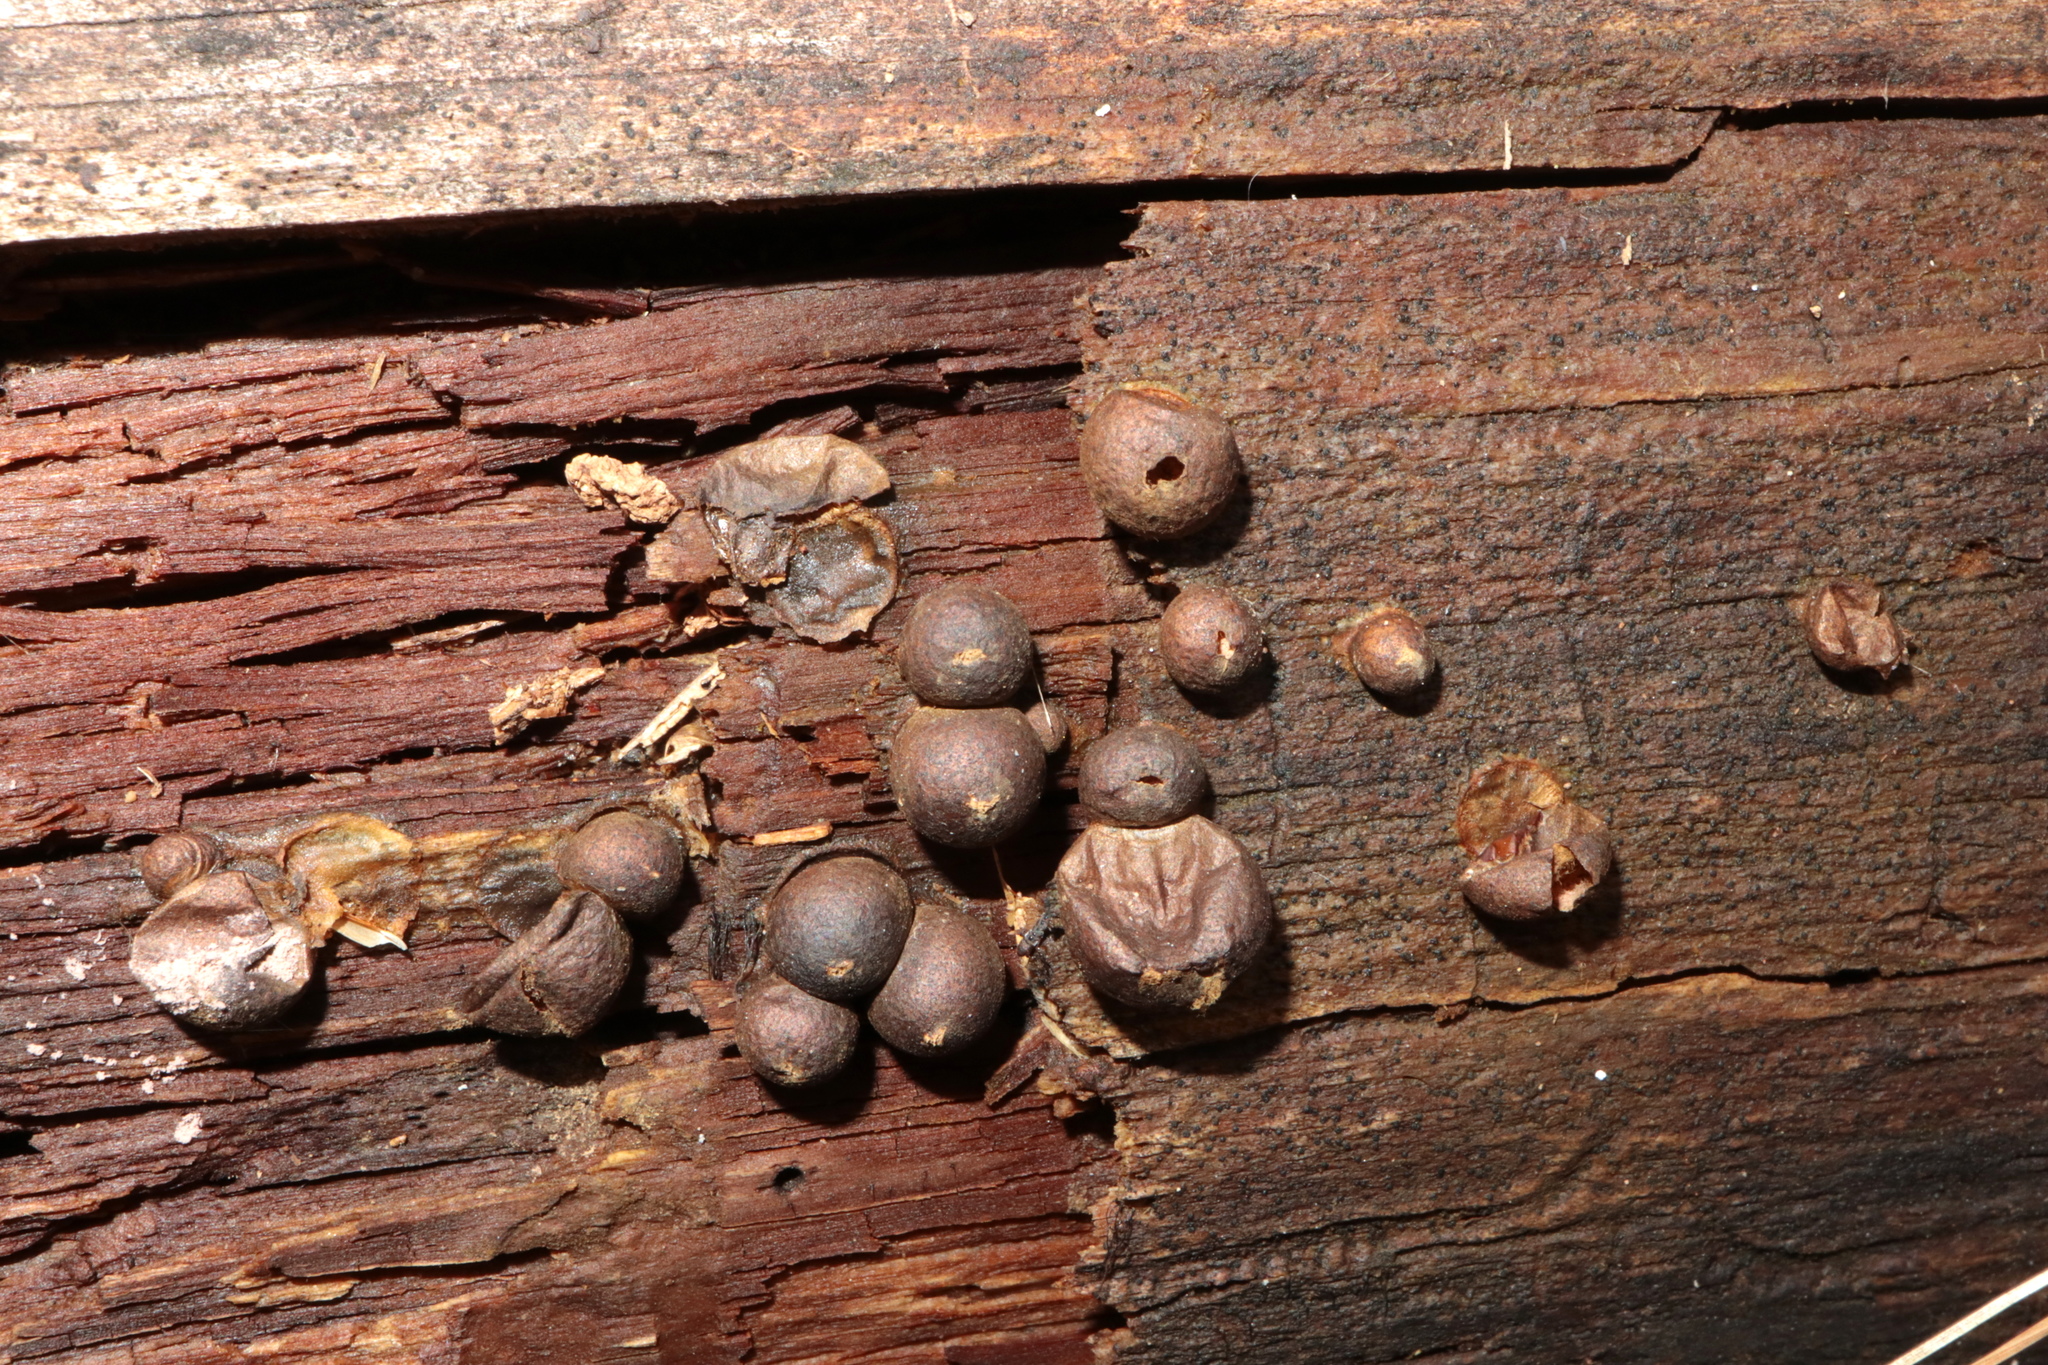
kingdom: Protozoa
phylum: Mycetozoa
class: Myxomycetes
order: Cribrariales
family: Tubiferaceae
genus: Lycogala
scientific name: Lycogala epidendrum
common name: Wolf's milk
